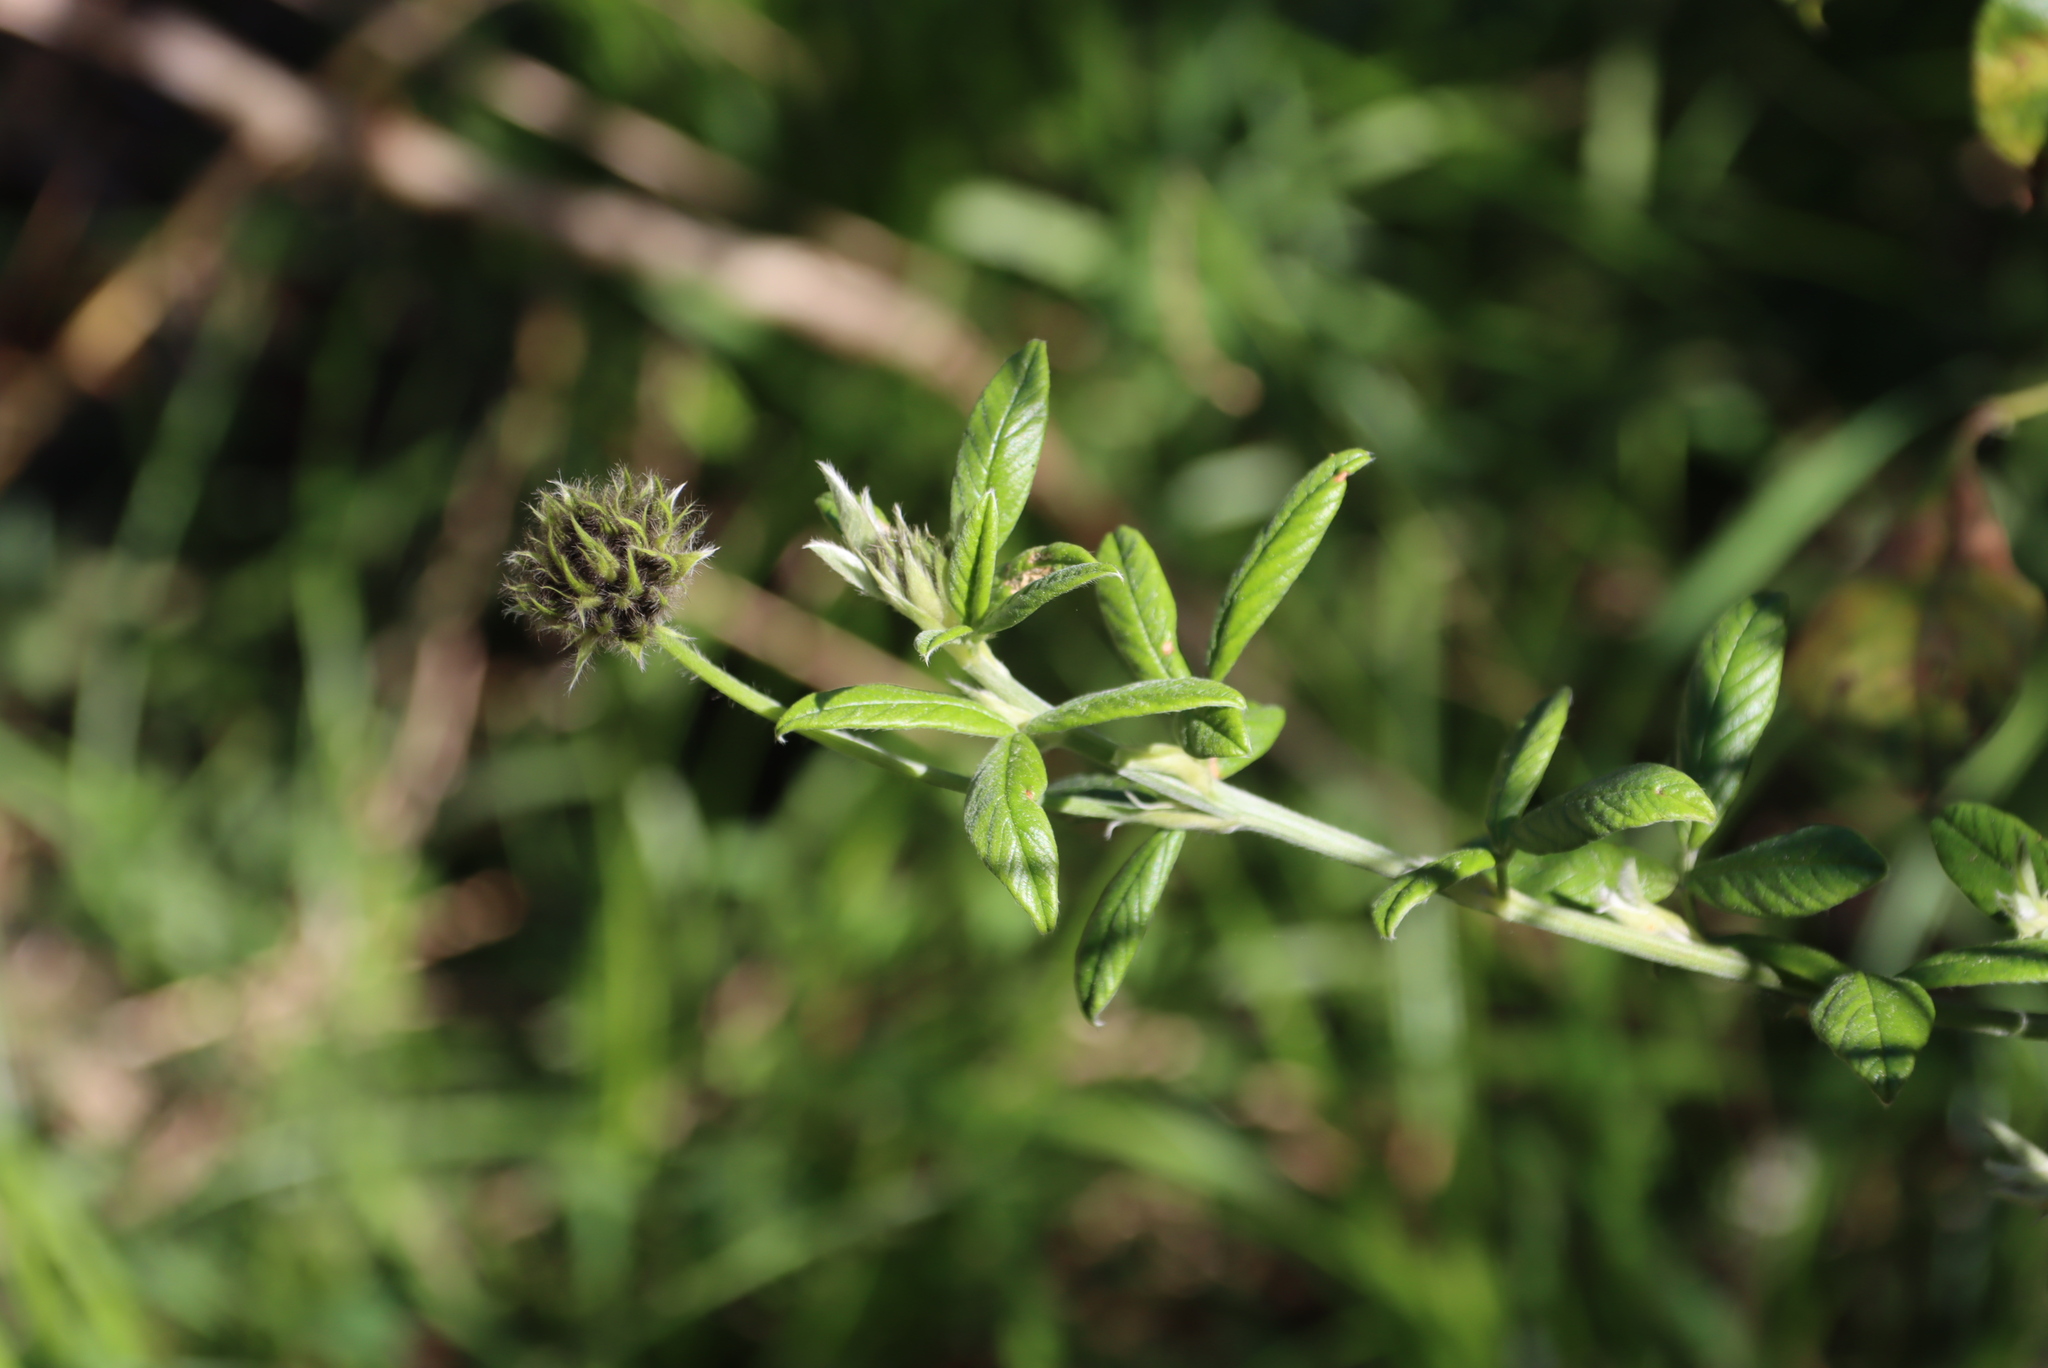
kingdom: Plantae
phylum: Tracheophyta
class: Magnoliopsida
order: Fabales
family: Fabaceae
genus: Psoralea
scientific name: Psoralea sericea
